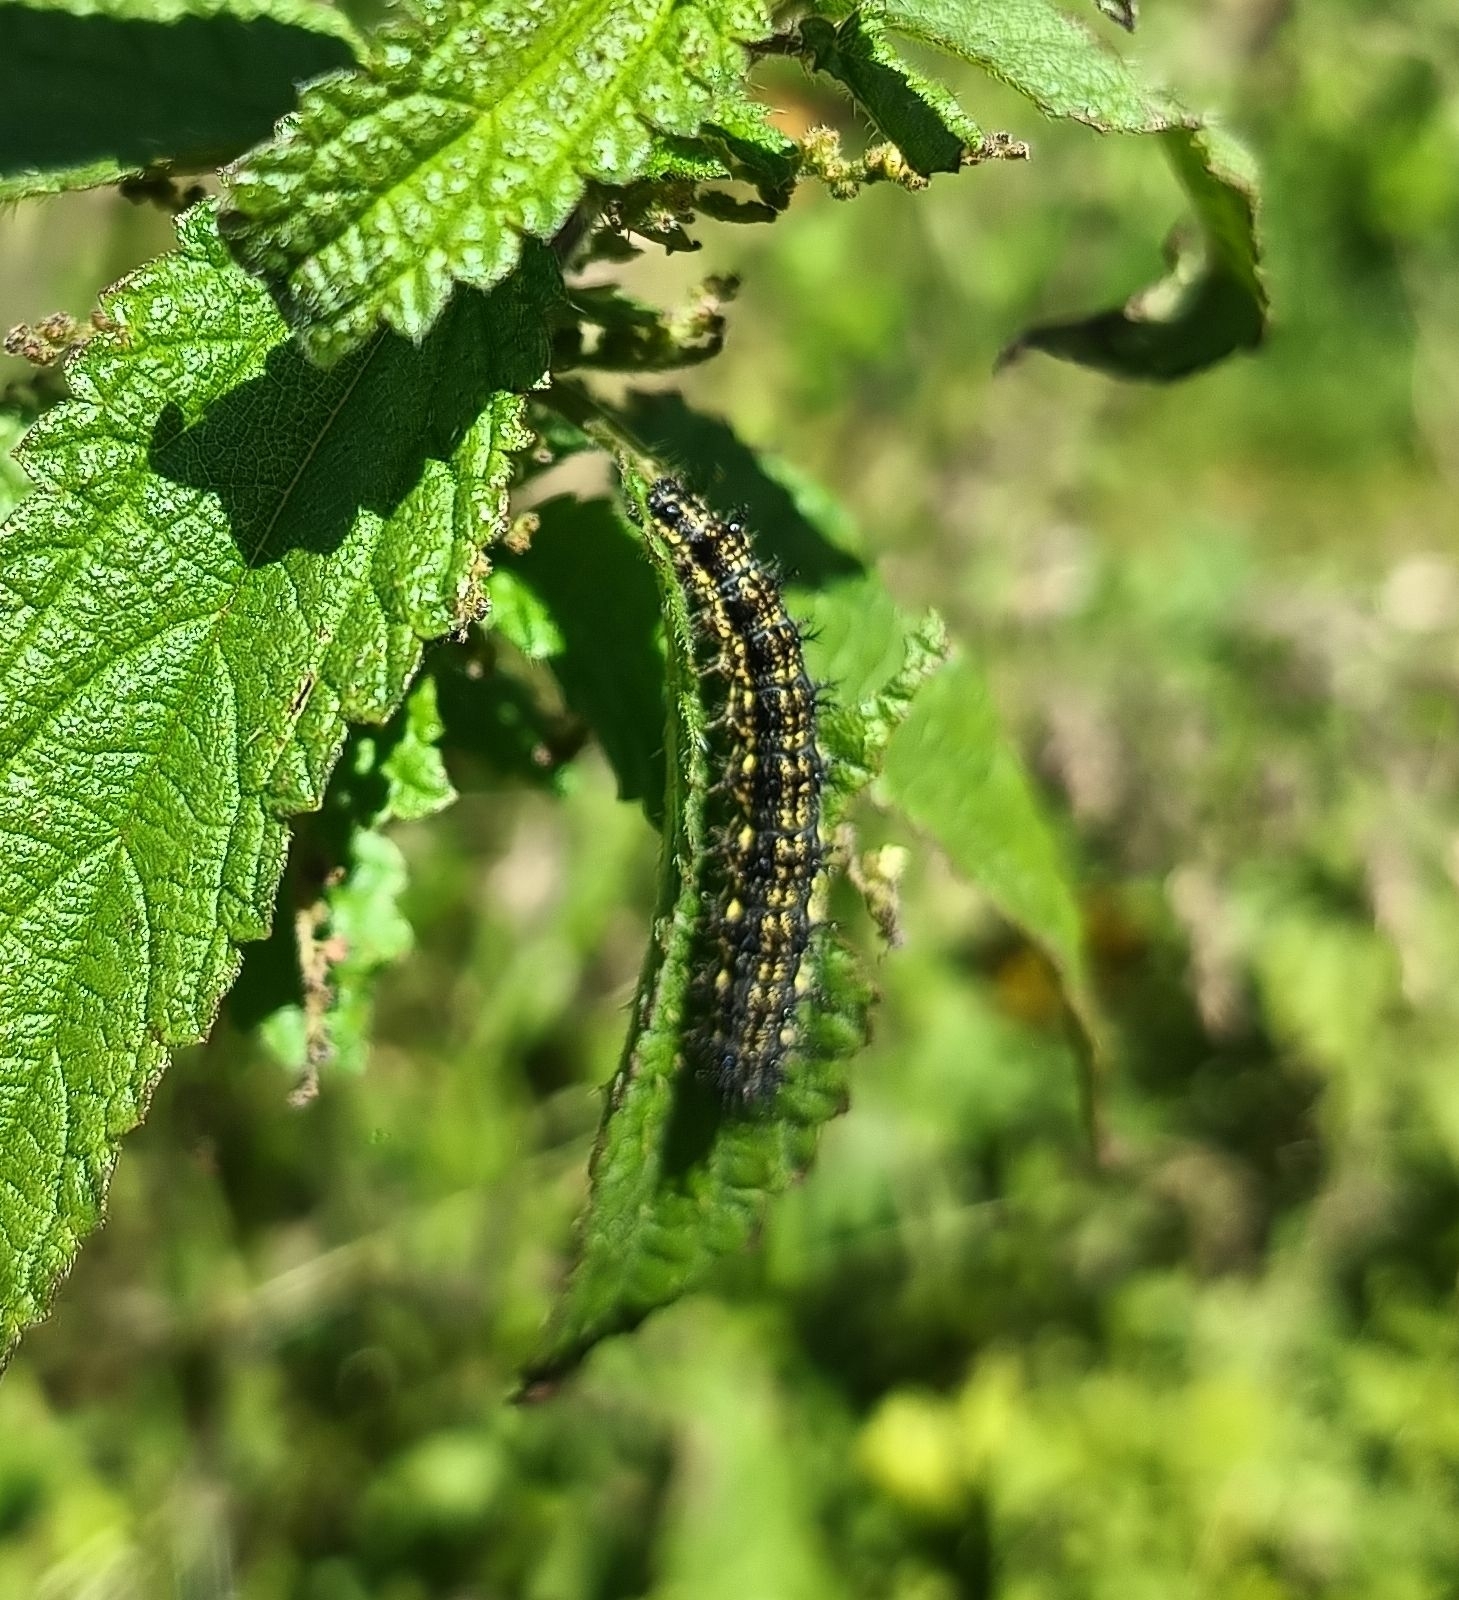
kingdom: Animalia
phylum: Arthropoda
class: Insecta
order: Lepidoptera
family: Nymphalidae
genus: Aglais
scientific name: Aglais urticae
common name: Small tortoiseshell
